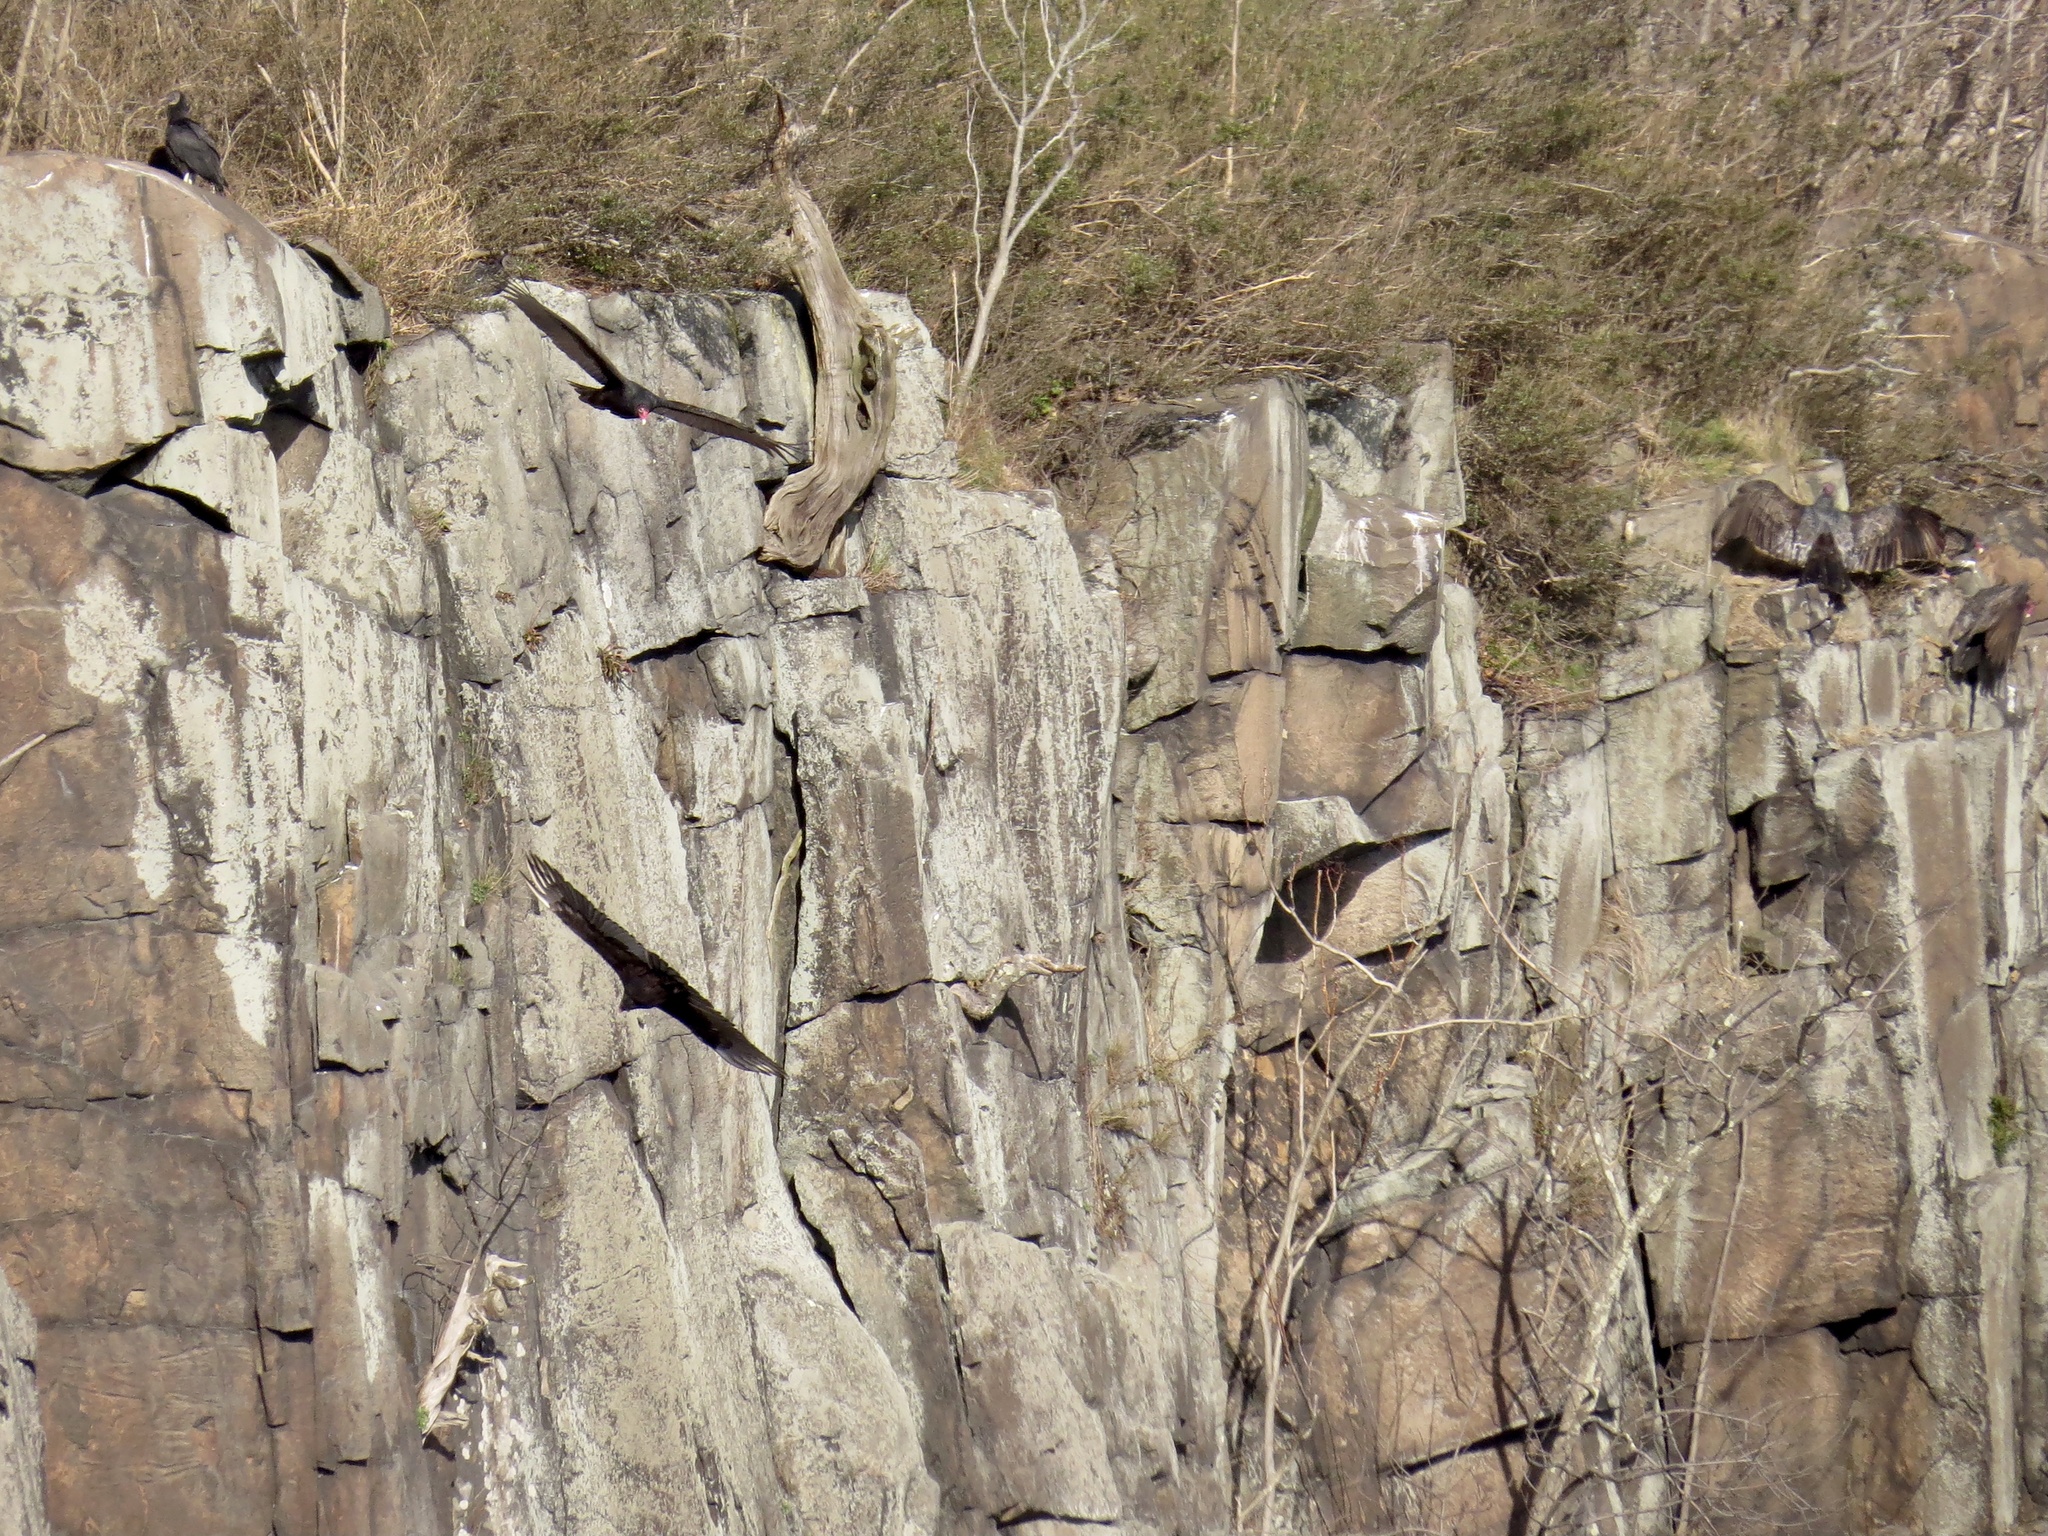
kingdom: Animalia
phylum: Chordata
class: Aves
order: Accipitriformes
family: Cathartidae
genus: Cathartes
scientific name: Cathartes aura
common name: Turkey vulture
